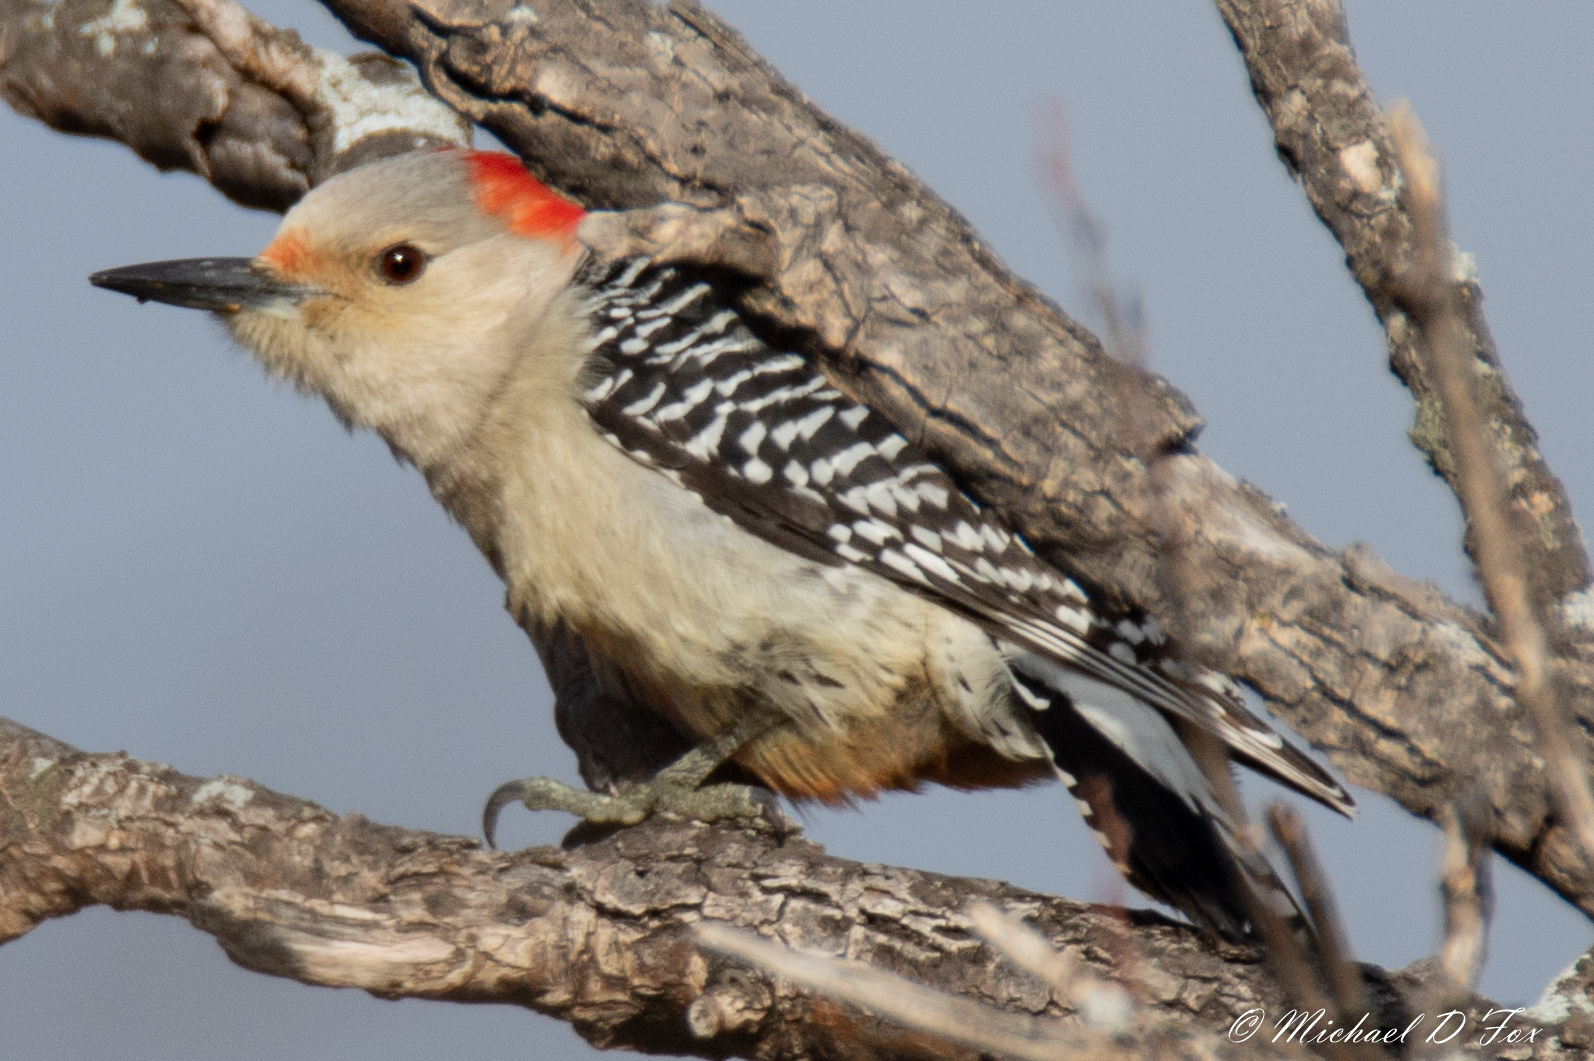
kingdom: Animalia
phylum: Chordata
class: Aves
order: Piciformes
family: Picidae
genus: Melanerpes
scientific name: Melanerpes carolinus
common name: Red-bellied woodpecker
